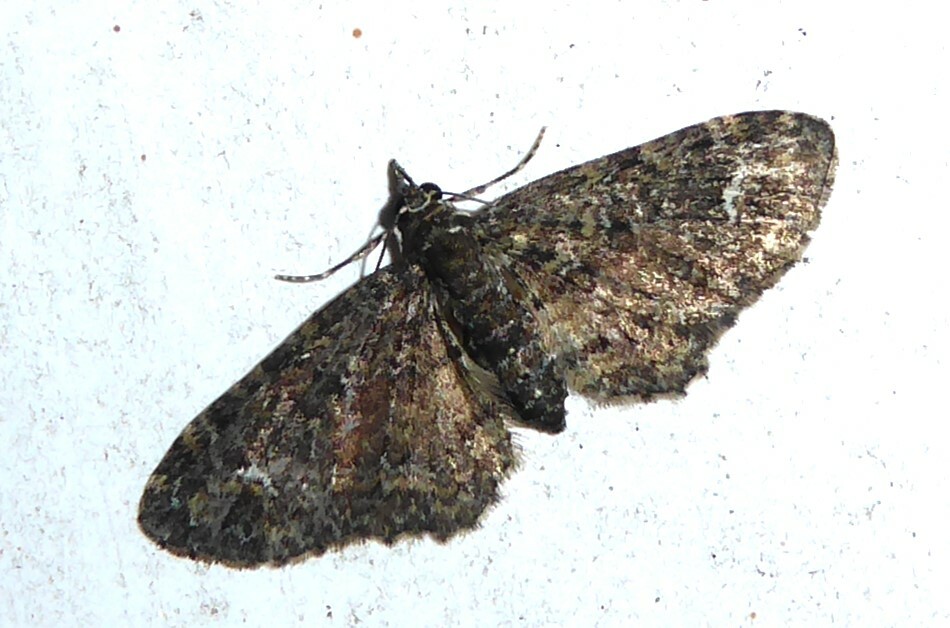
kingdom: Animalia
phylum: Arthropoda
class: Insecta
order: Lepidoptera
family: Geometridae
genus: Pasiphilodes
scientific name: Pasiphilodes testulata
